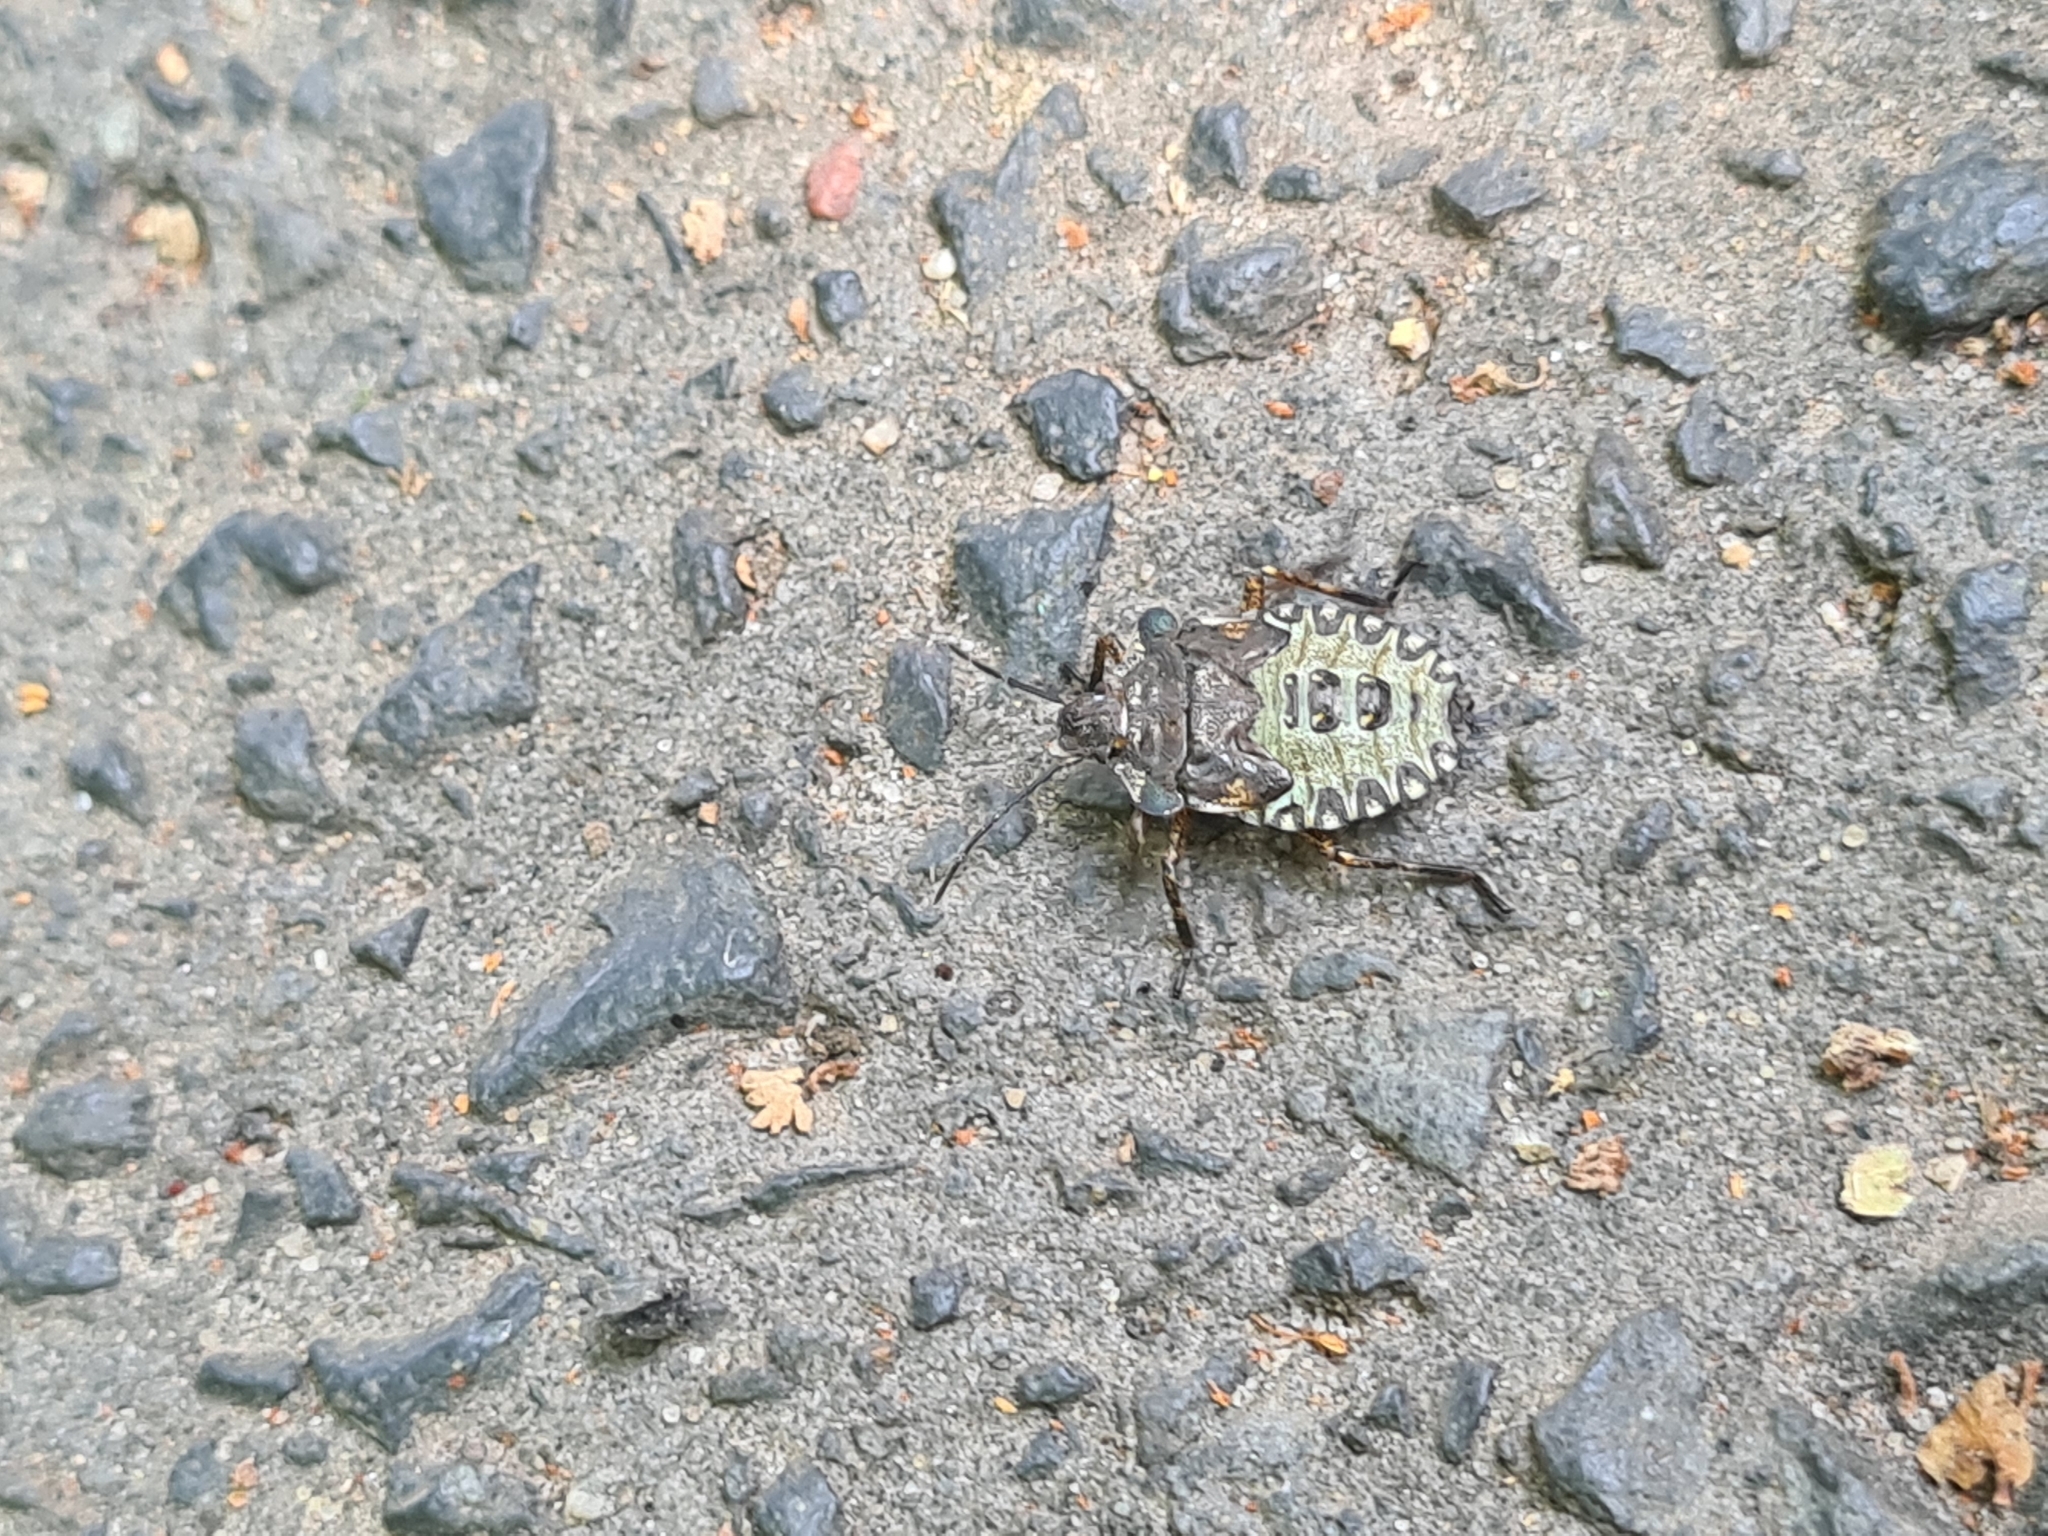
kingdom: Animalia
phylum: Arthropoda
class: Insecta
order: Hemiptera
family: Pentatomidae
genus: Pentatoma
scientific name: Pentatoma rufipes
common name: Forest bug
